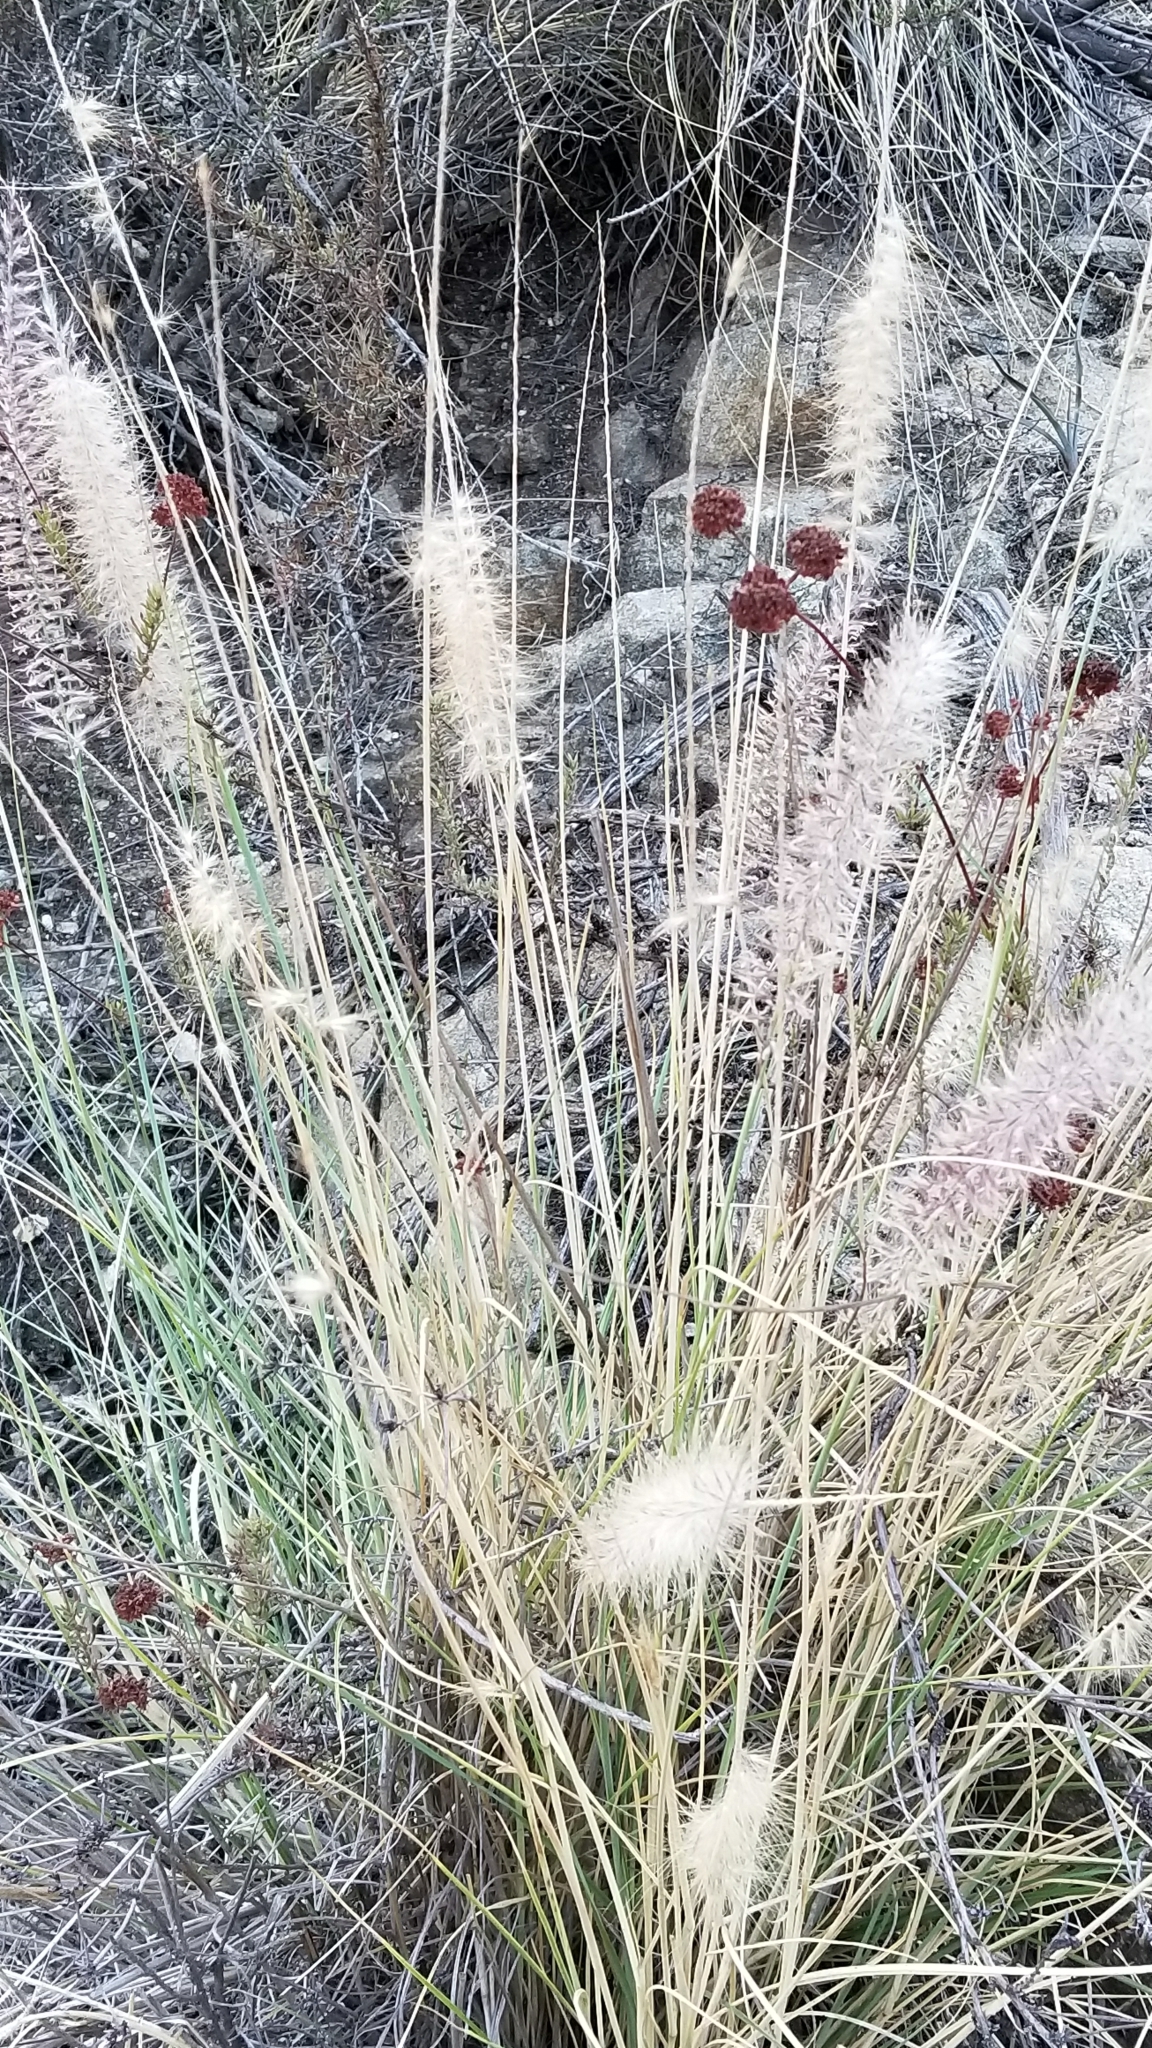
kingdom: Plantae
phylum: Tracheophyta
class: Liliopsida
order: Poales
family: Poaceae
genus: Cenchrus
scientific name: Cenchrus setaceus
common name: Crimson fountaingrass
